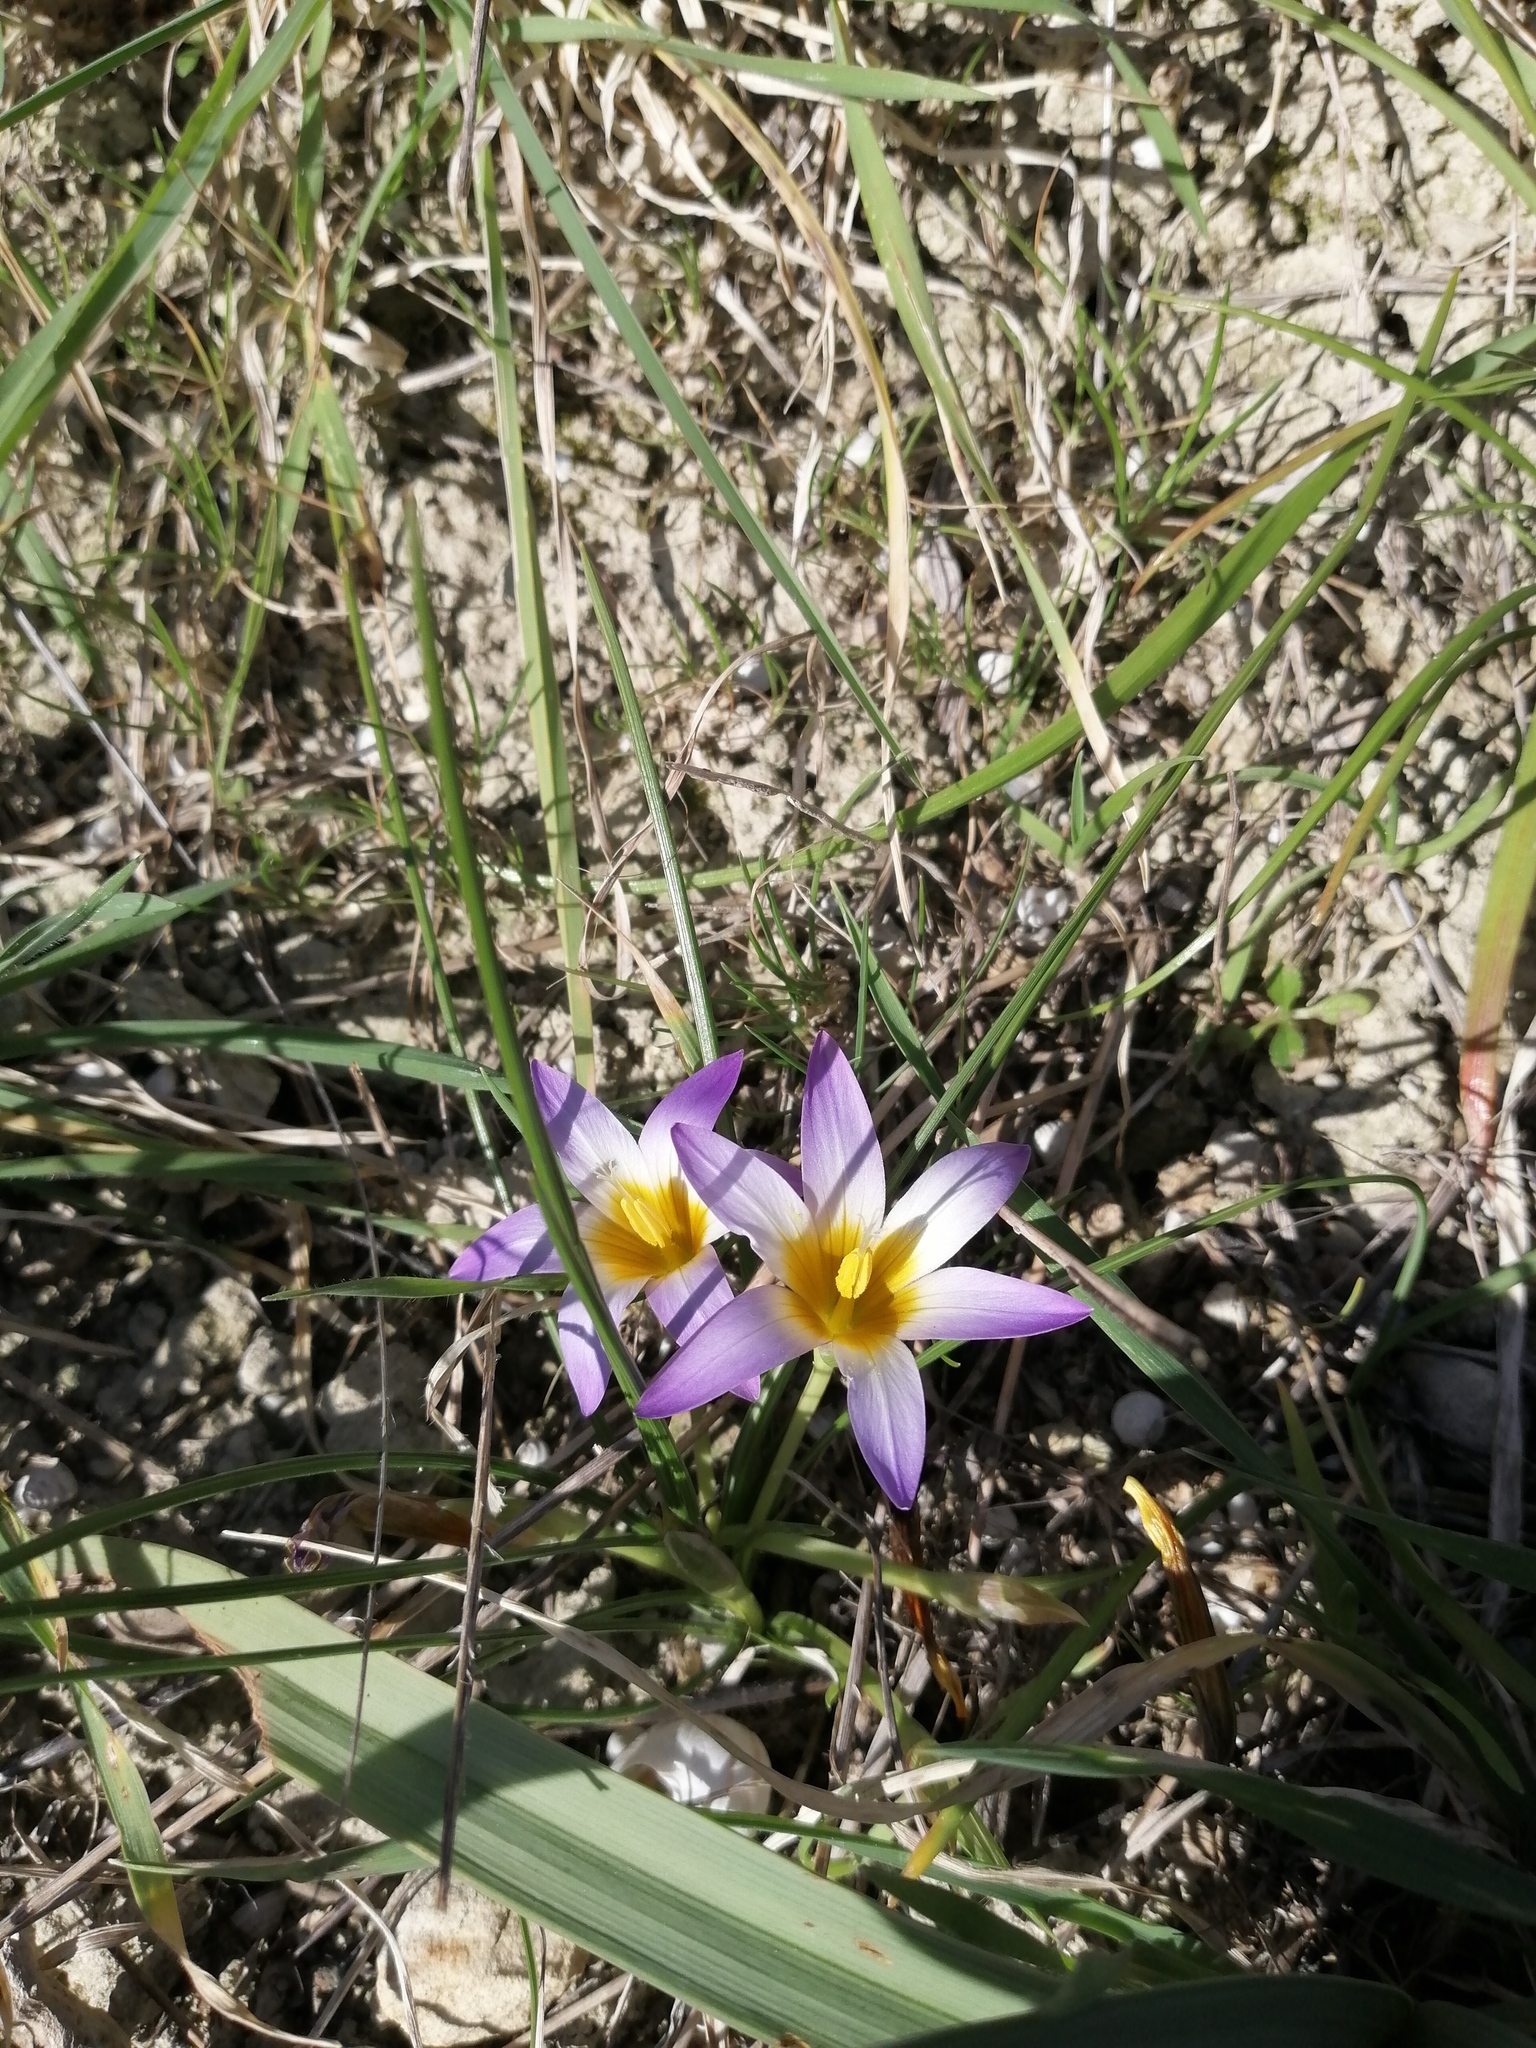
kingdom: Plantae
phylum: Tracheophyta
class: Liliopsida
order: Asparagales
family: Iridaceae
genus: Romulea
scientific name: Romulea bulbocodium
